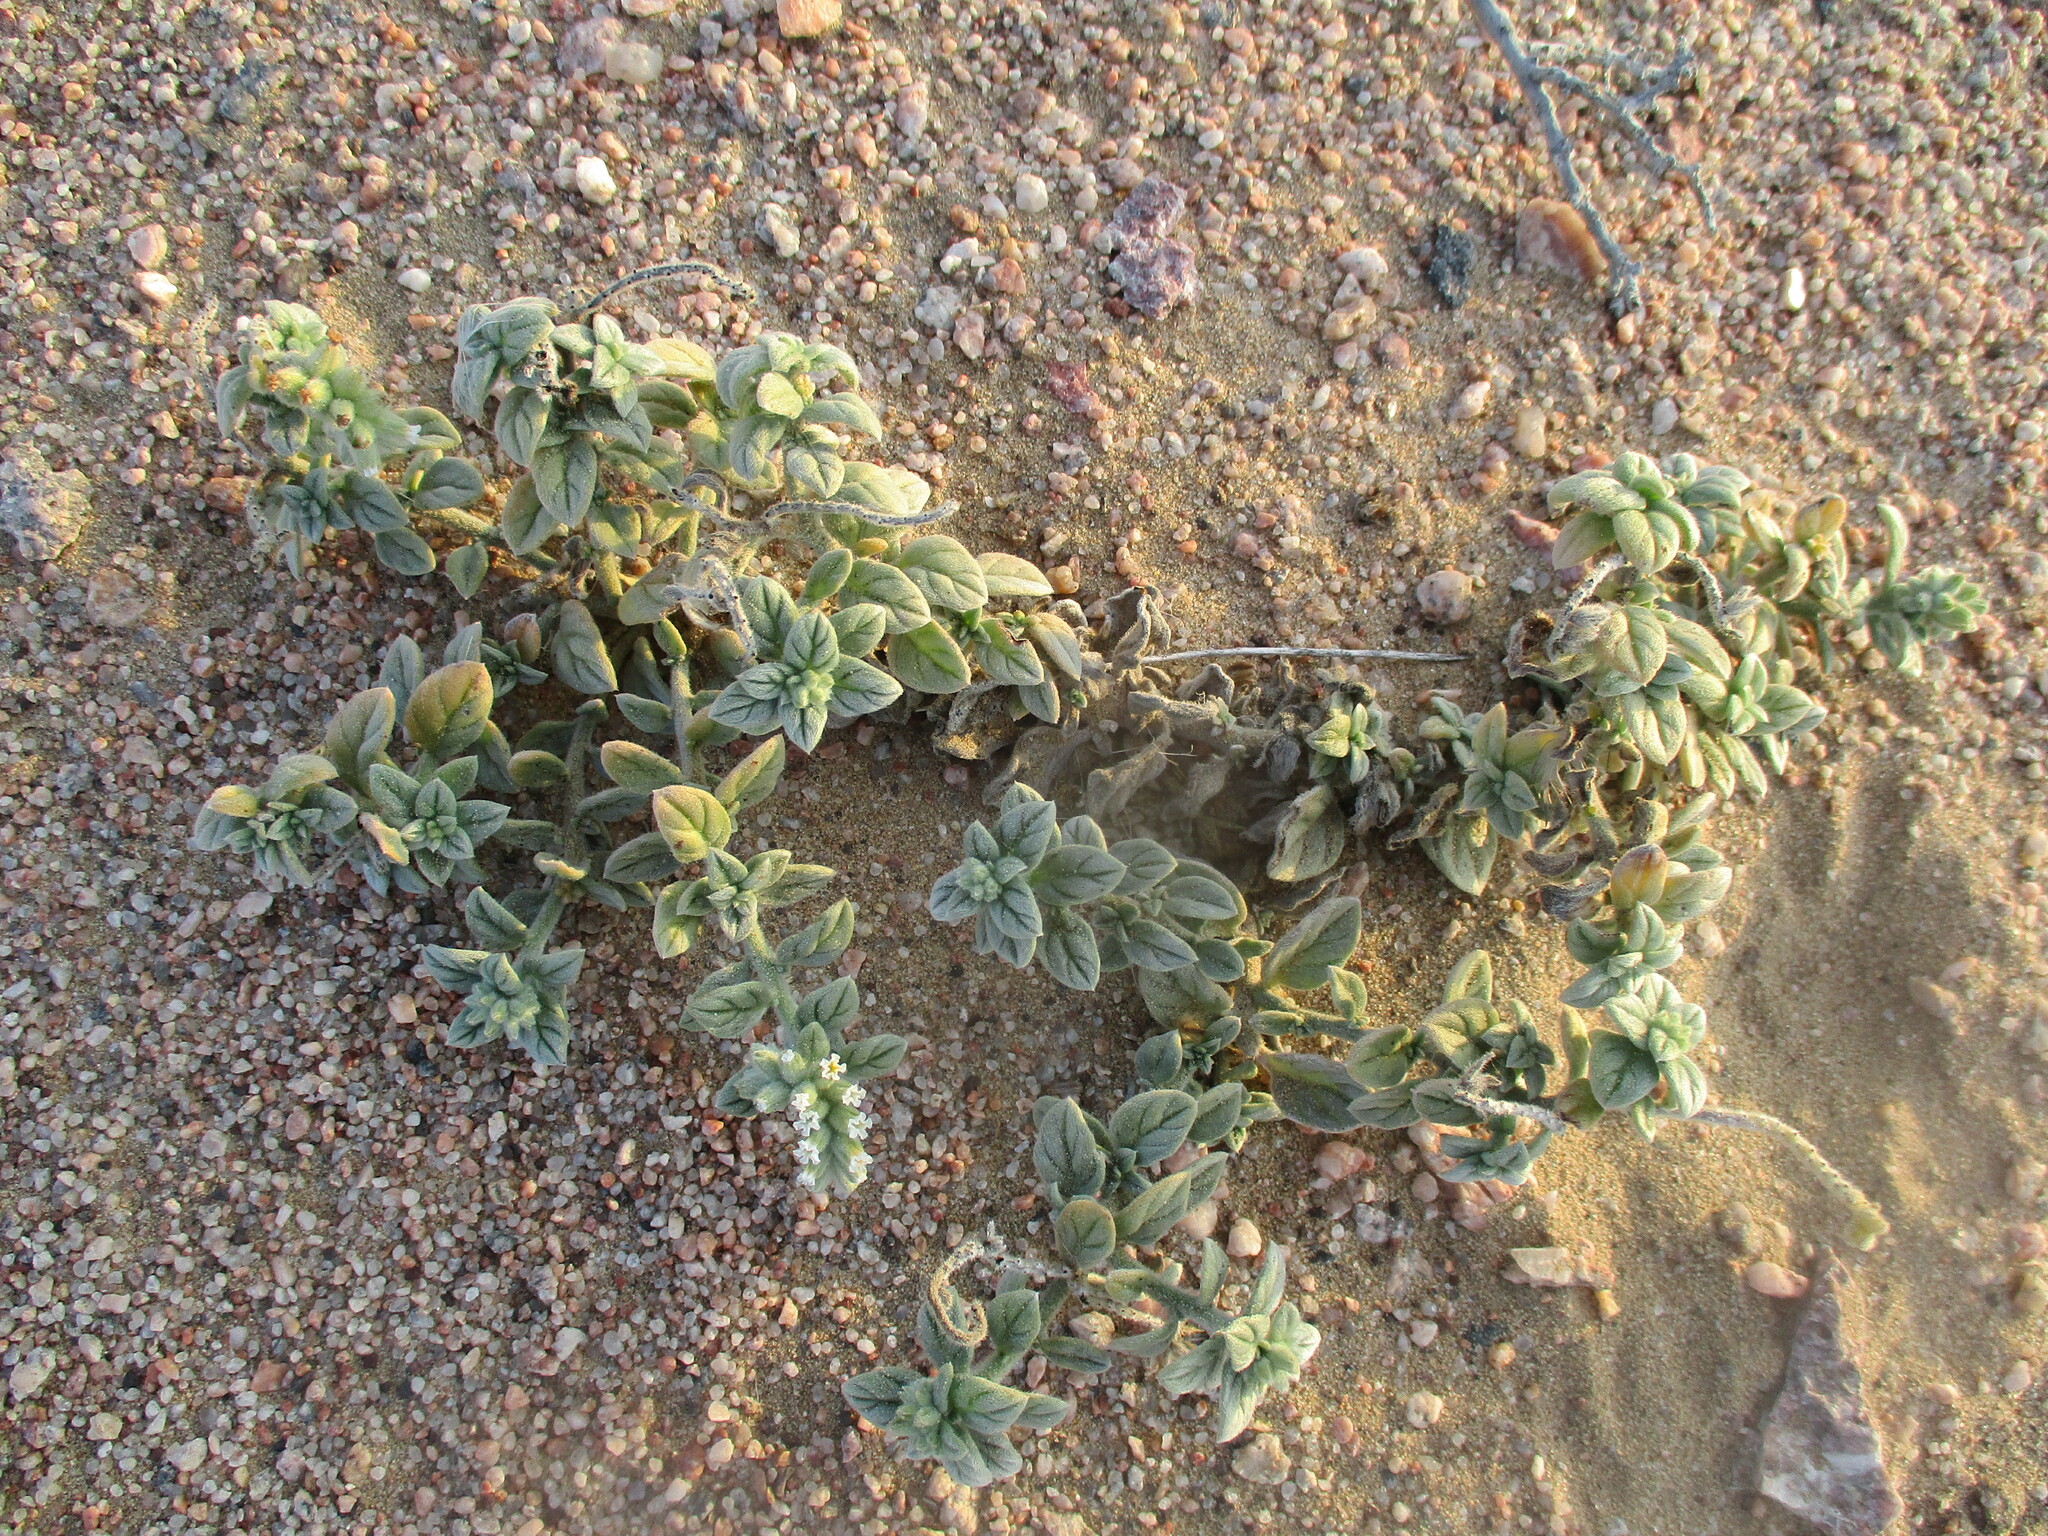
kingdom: Plantae
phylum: Tracheophyta
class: Magnoliopsida
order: Boraginales
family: Heliotropiaceae
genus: Heliotropium
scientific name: Heliotropium supinum
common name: Dwarf heliotrope
